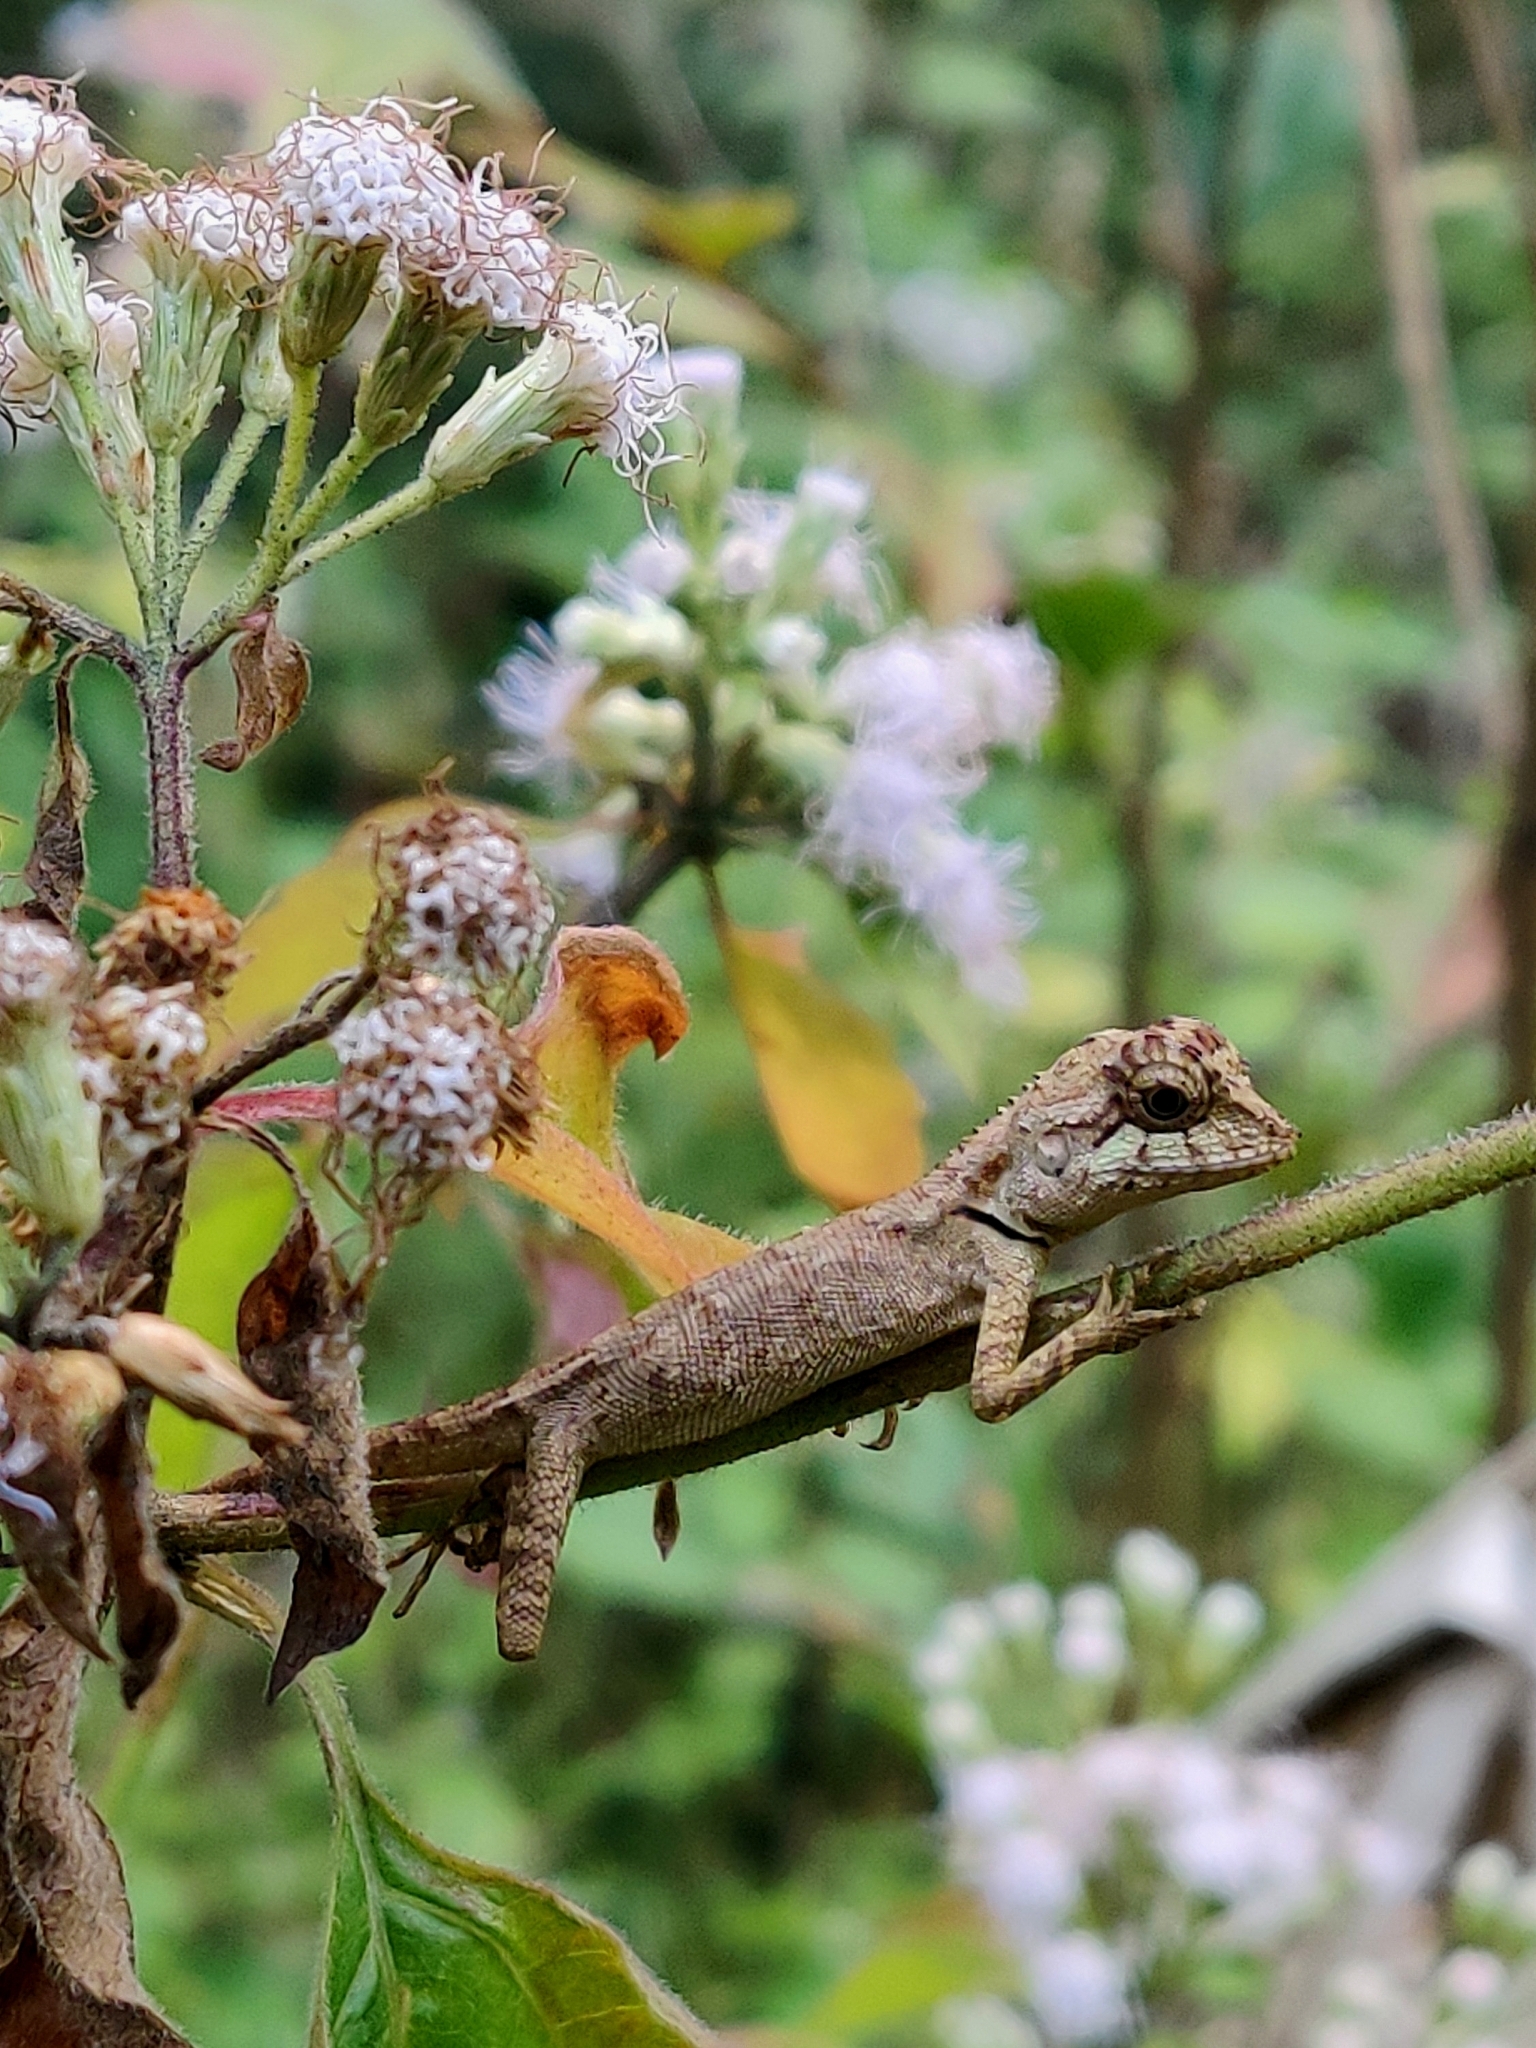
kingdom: Animalia
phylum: Chordata
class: Squamata
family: Agamidae
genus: Monilesaurus
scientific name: Monilesaurus rouxii
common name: Roux's forest lizard
